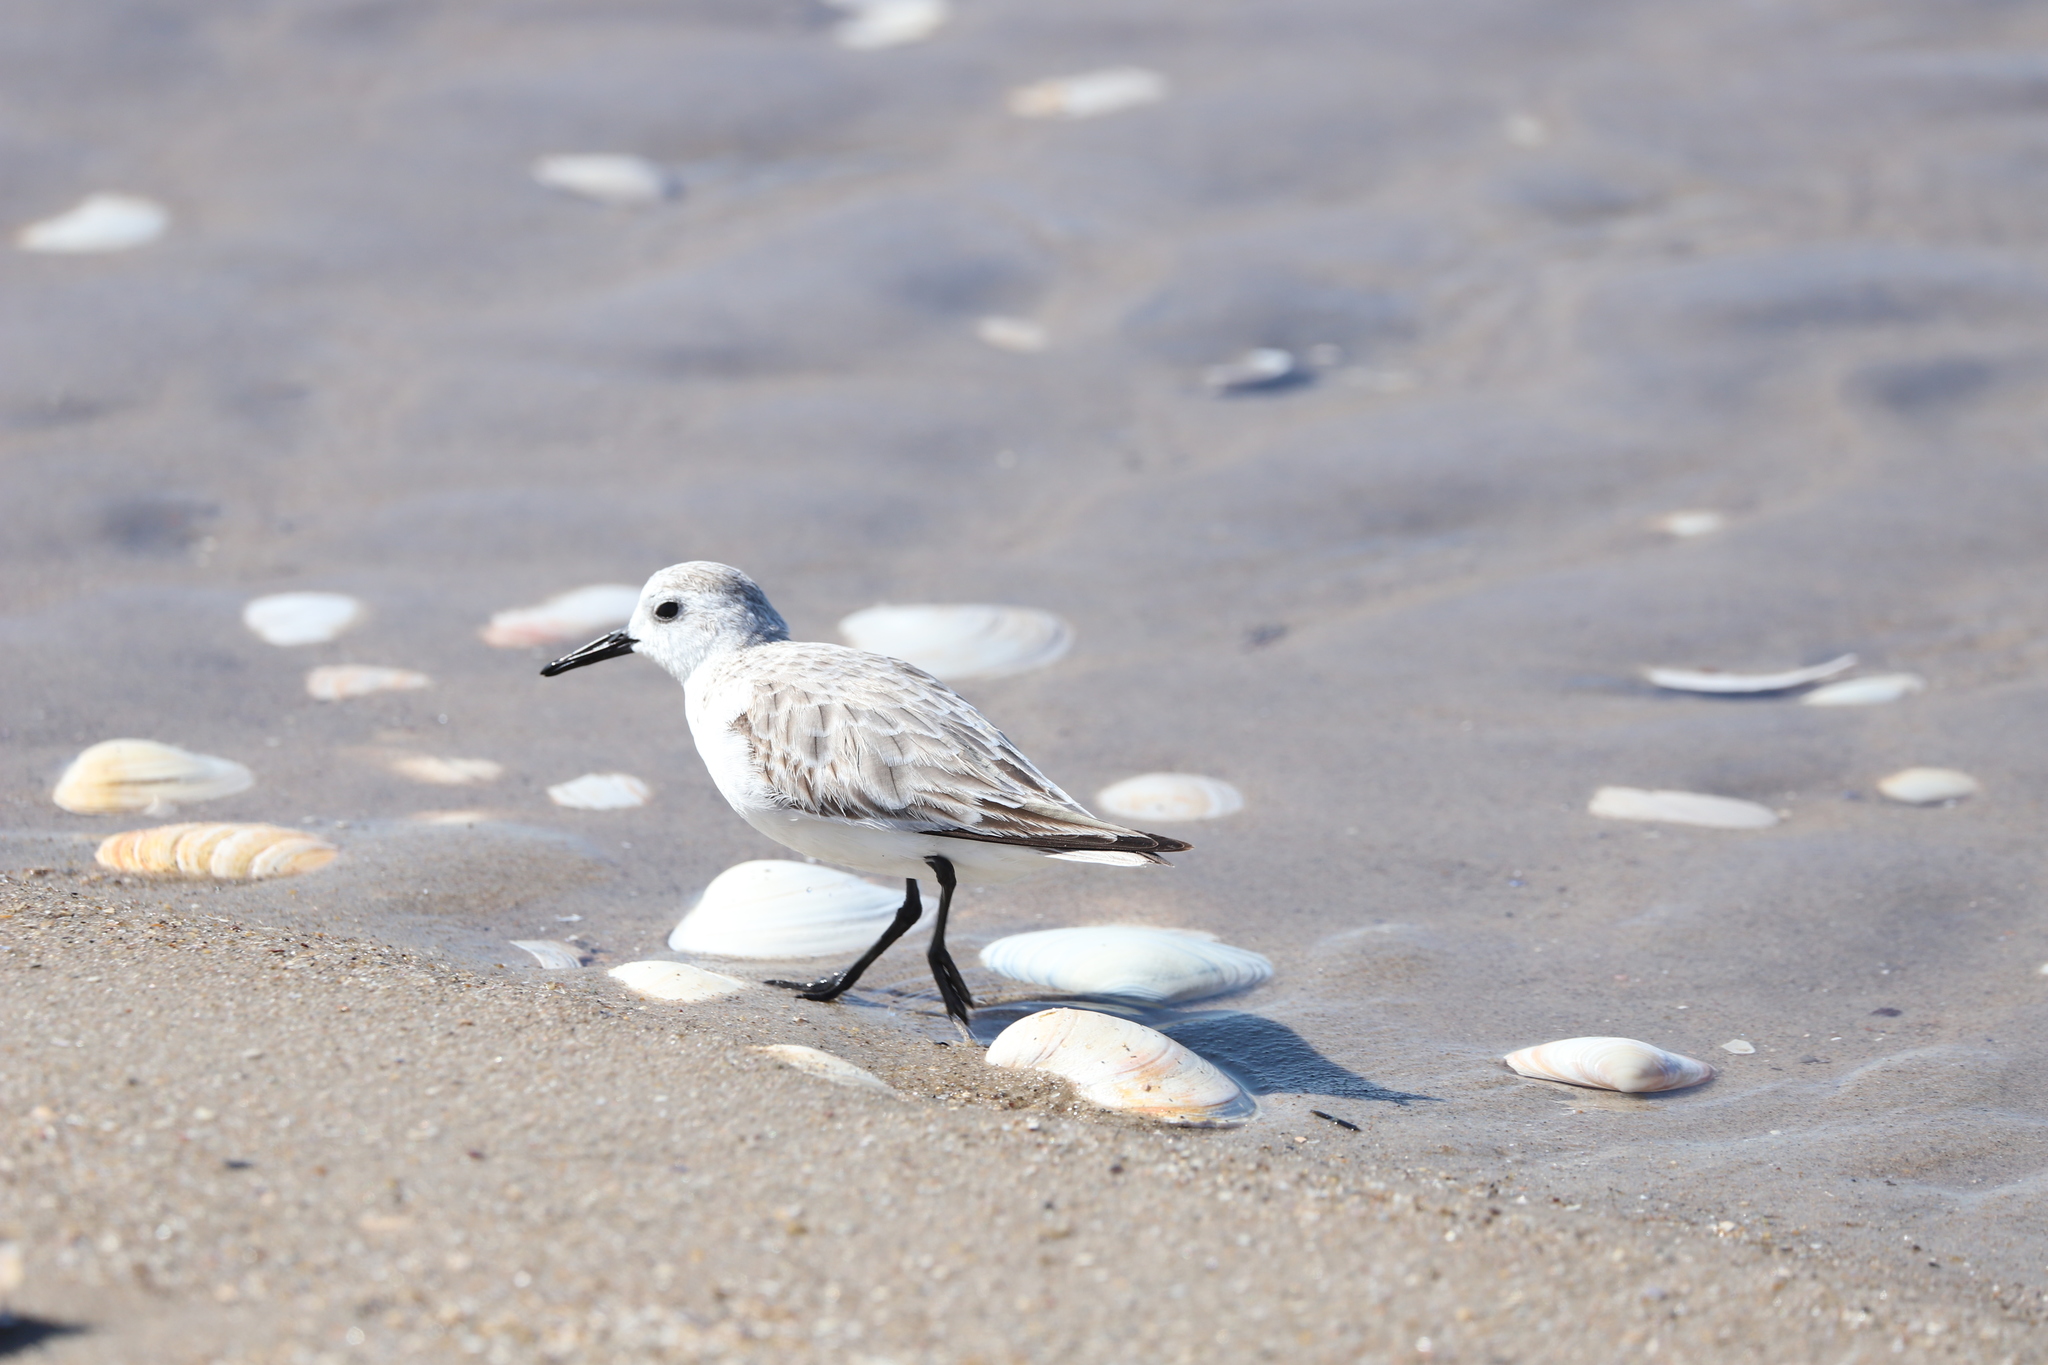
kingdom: Animalia
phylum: Chordata
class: Aves
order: Charadriiformes
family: Scolopacidae
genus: Calidris
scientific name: Calidris alba
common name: Sanderling
